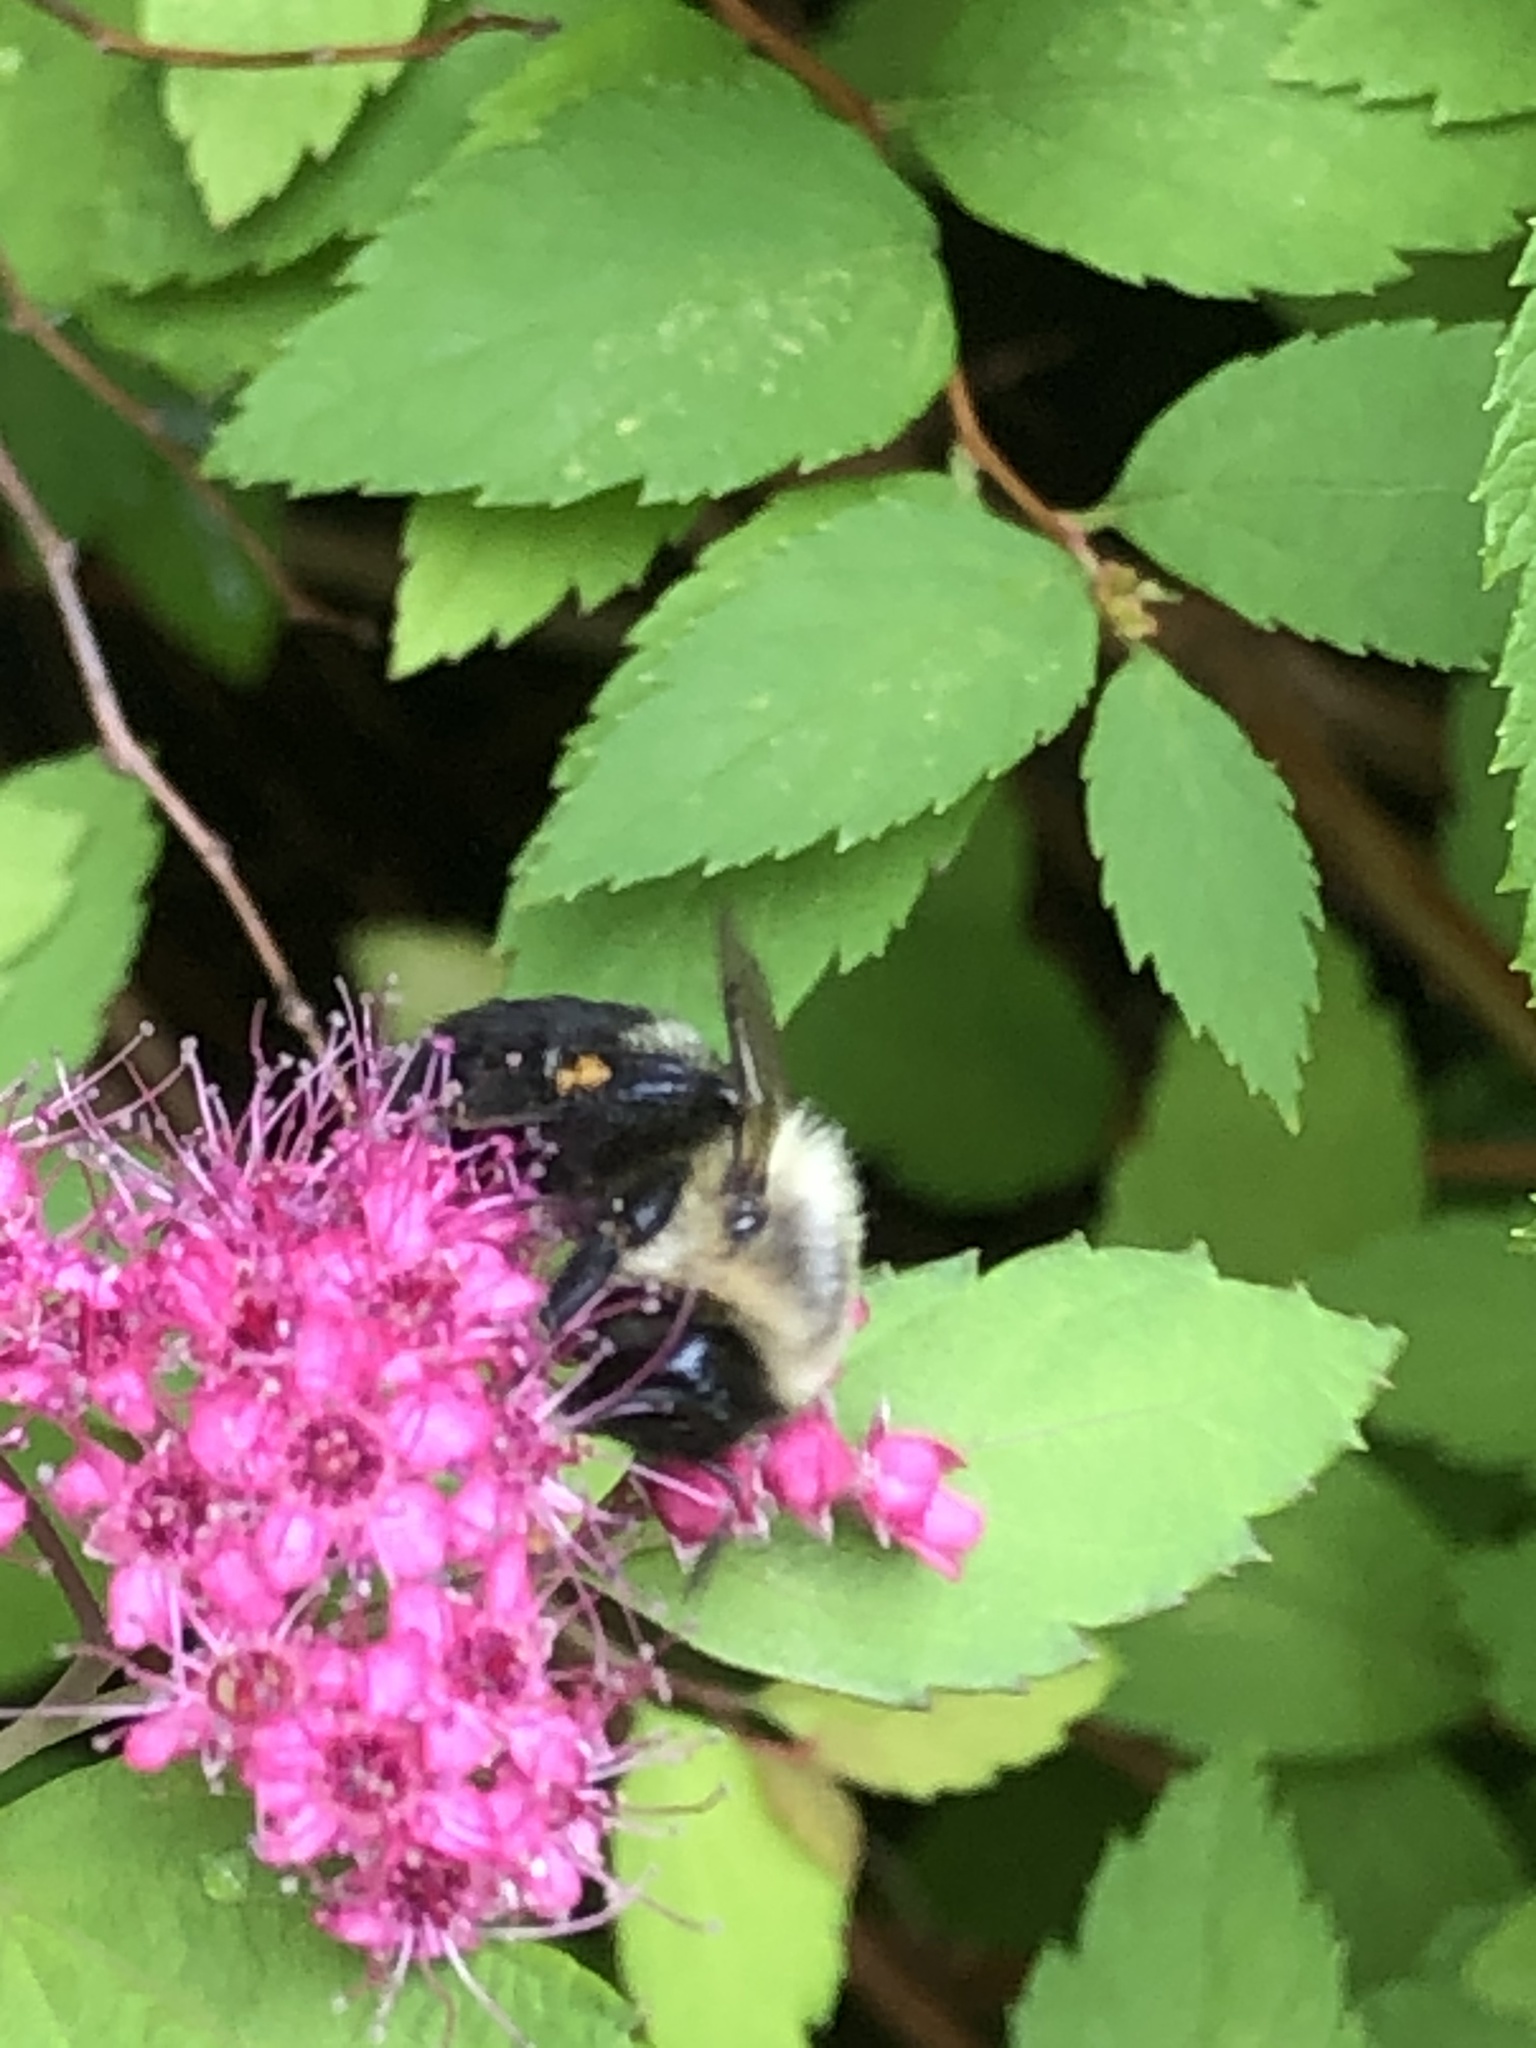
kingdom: Animalia
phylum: Arthropoda
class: Insecta
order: Hymenoptera
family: Apidae
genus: Bombus
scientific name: Bombus impatiens
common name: Common eastern bumble bee
